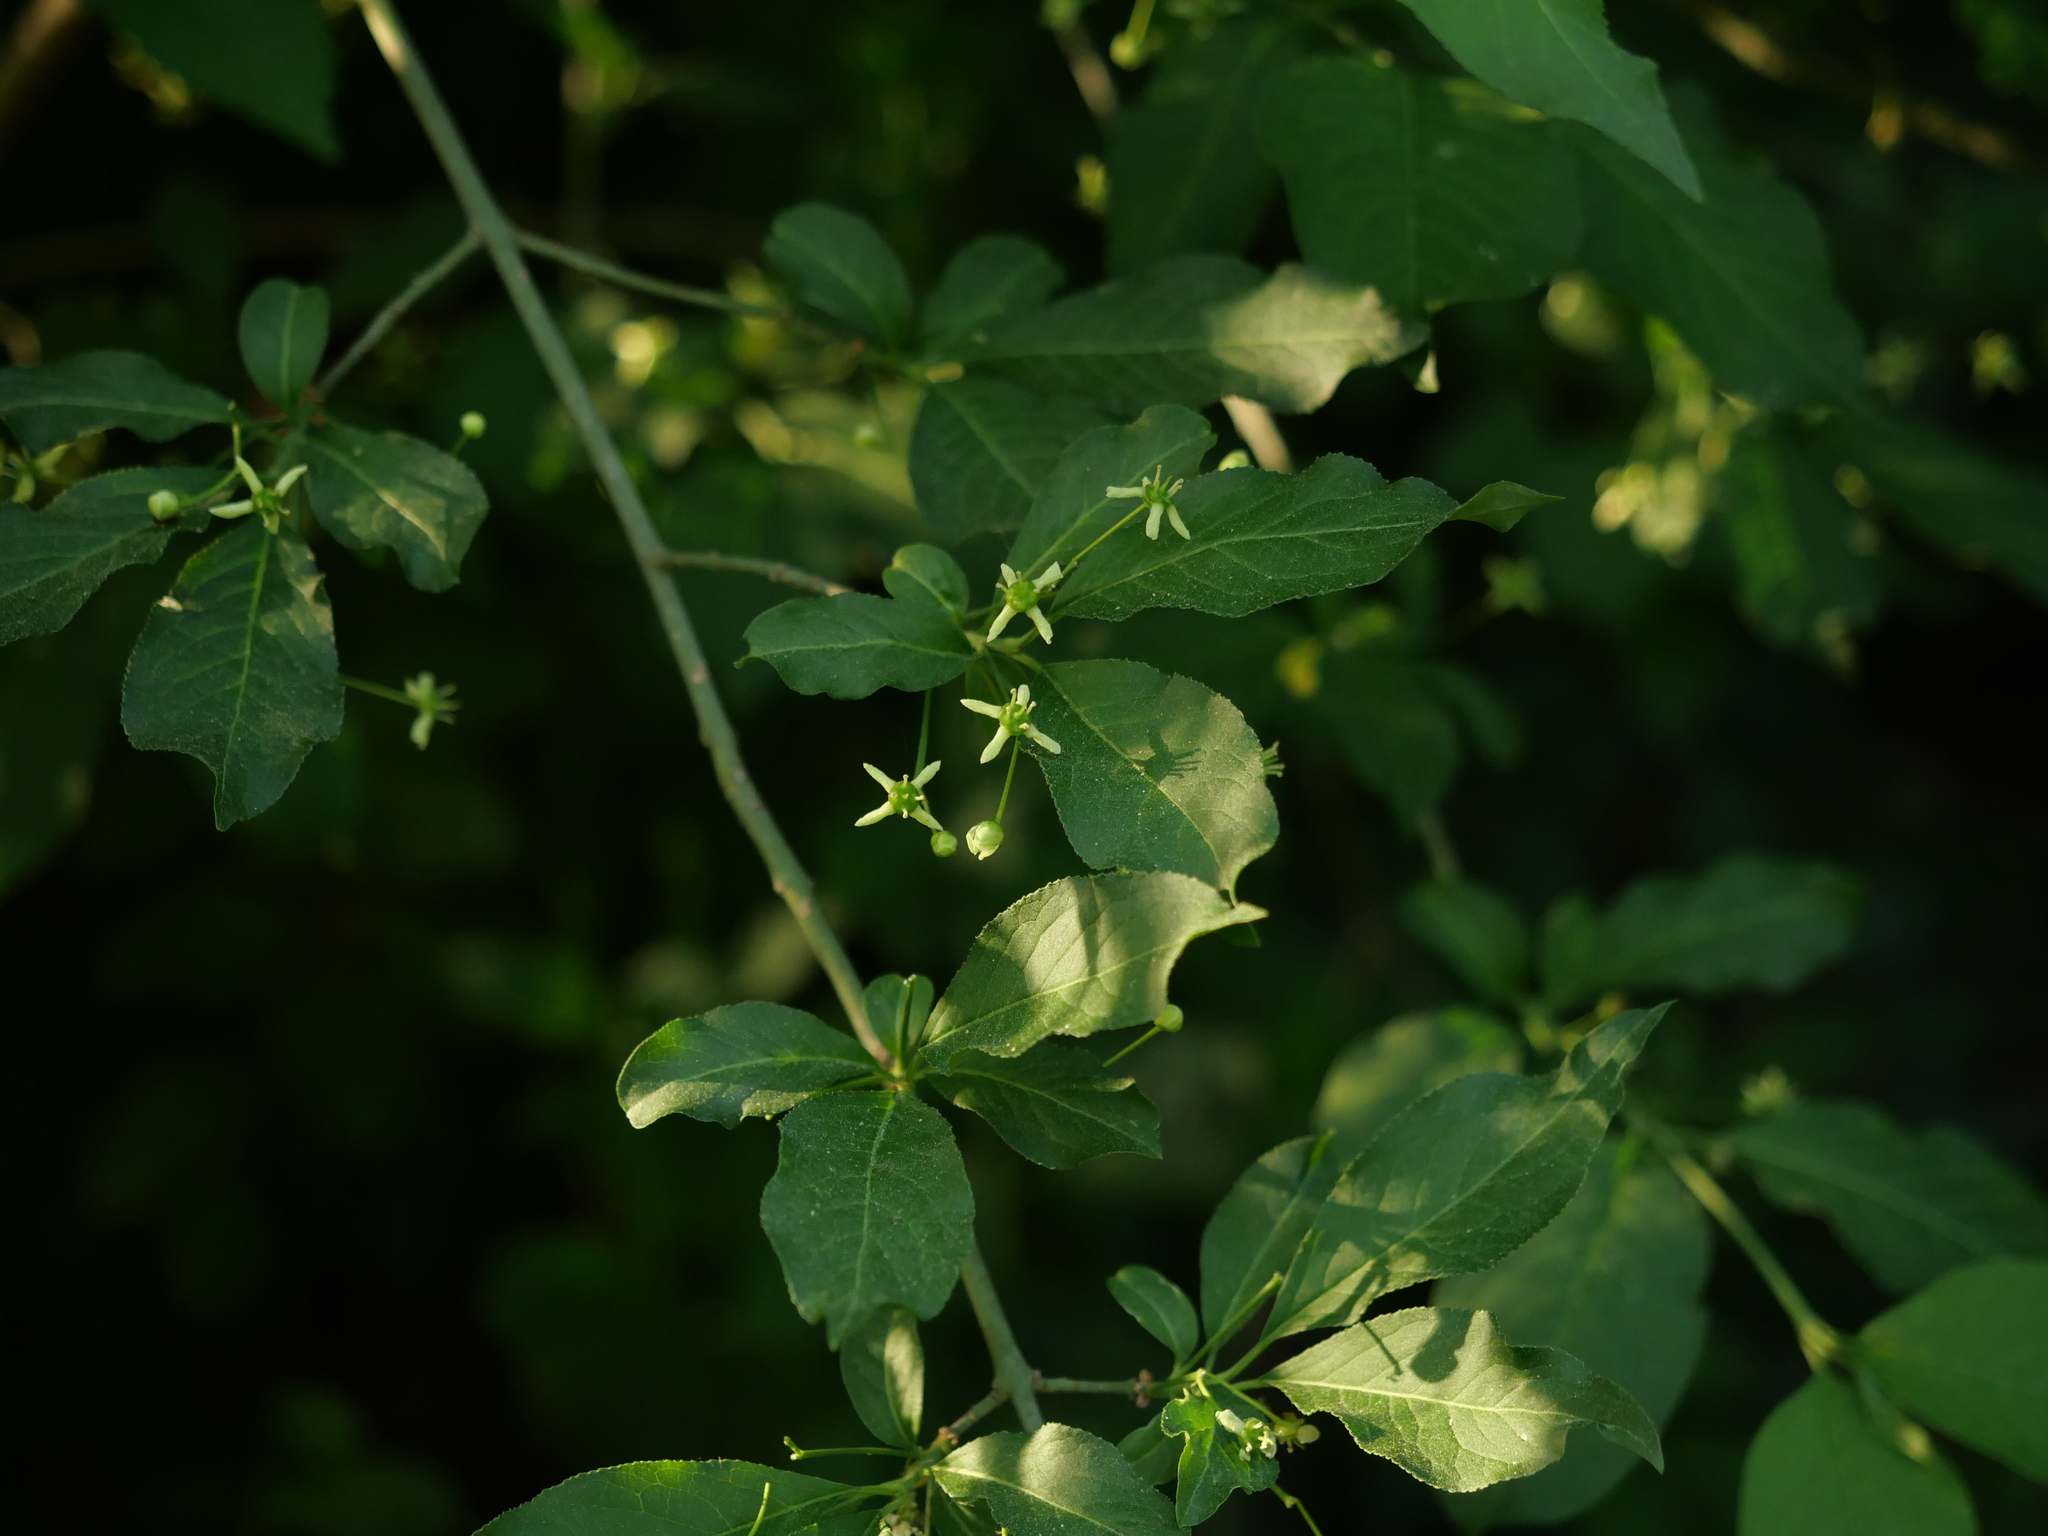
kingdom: Plantae
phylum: Tracheophyta
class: Magnoliopsida
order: Celastrales
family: Celastraceae
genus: Euonymus
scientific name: Euonymus europaeus
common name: Spindle
